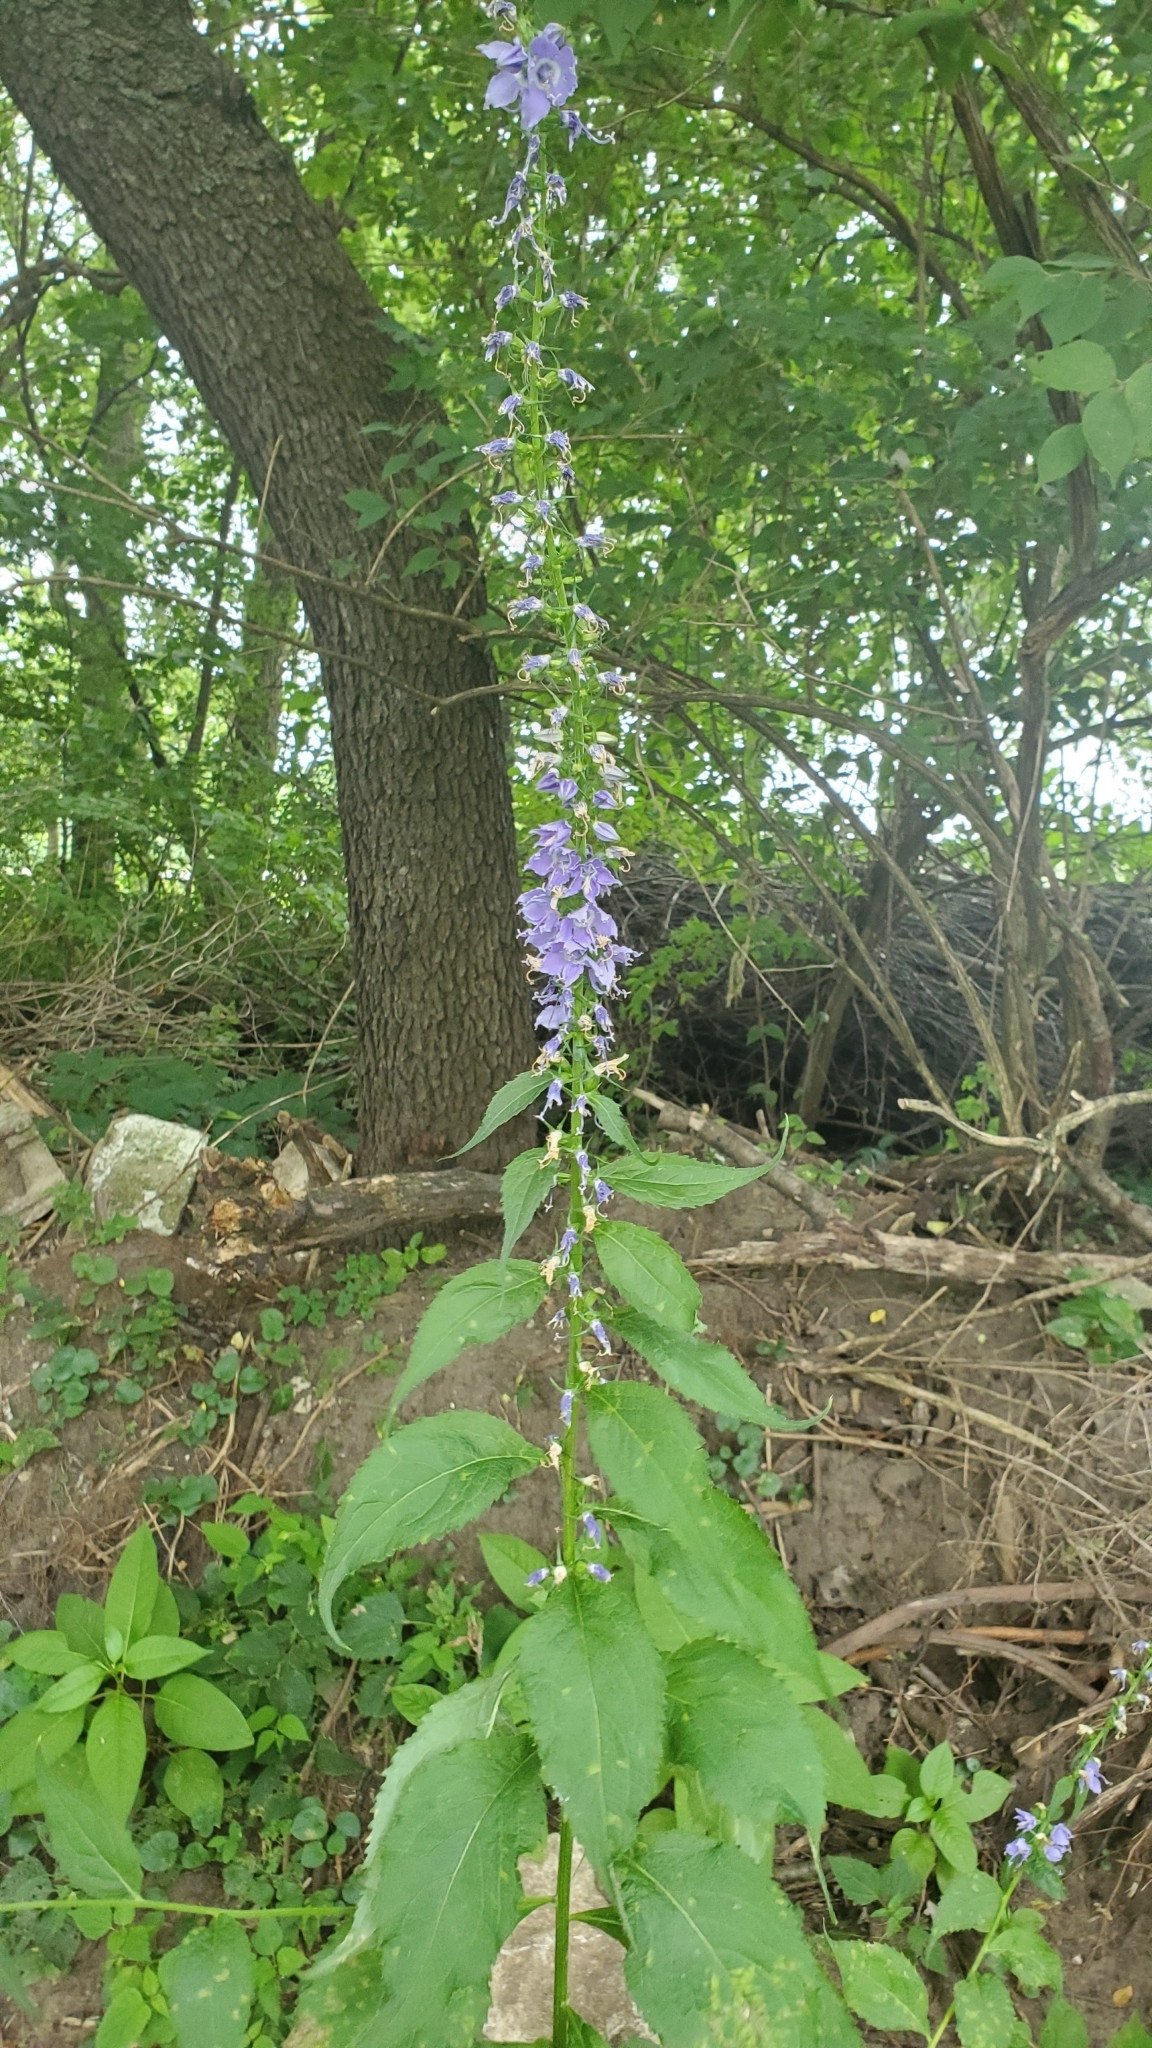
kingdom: Plantae
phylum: Tracheophyta
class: Magnoliopsida
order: Asterales
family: Campanulaceae
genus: Campanulastrum
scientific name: Campanulastrum americanum
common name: American bellflower
